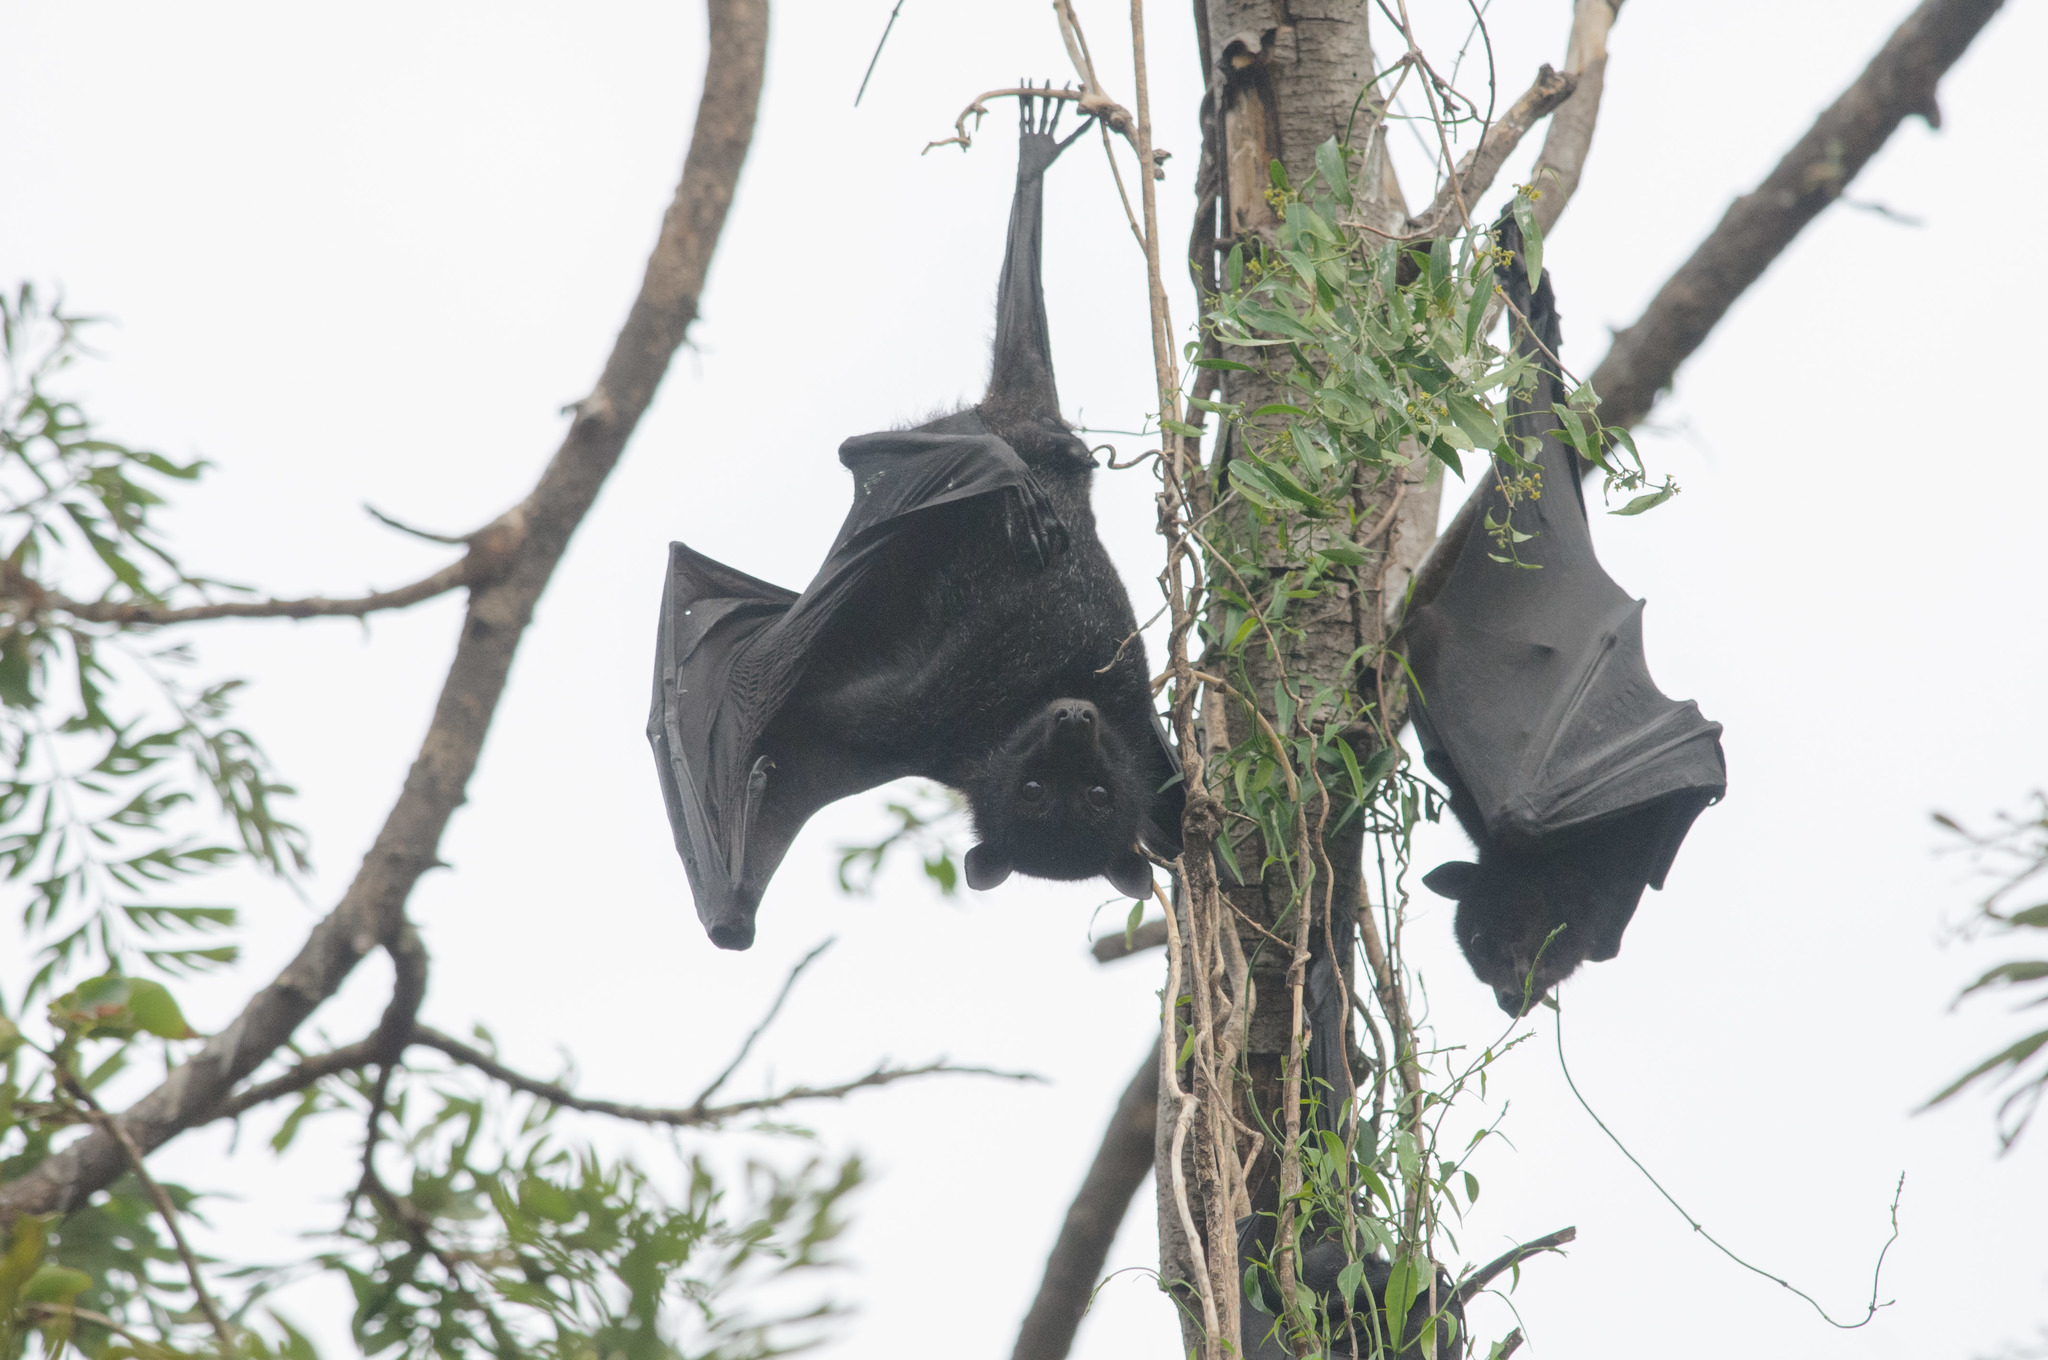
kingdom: Animalia
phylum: Chordata
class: Mammalia
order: Chiroptera
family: Pteropodidae
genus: Pteropus
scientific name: Pteropus alecto
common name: Black flying fox
